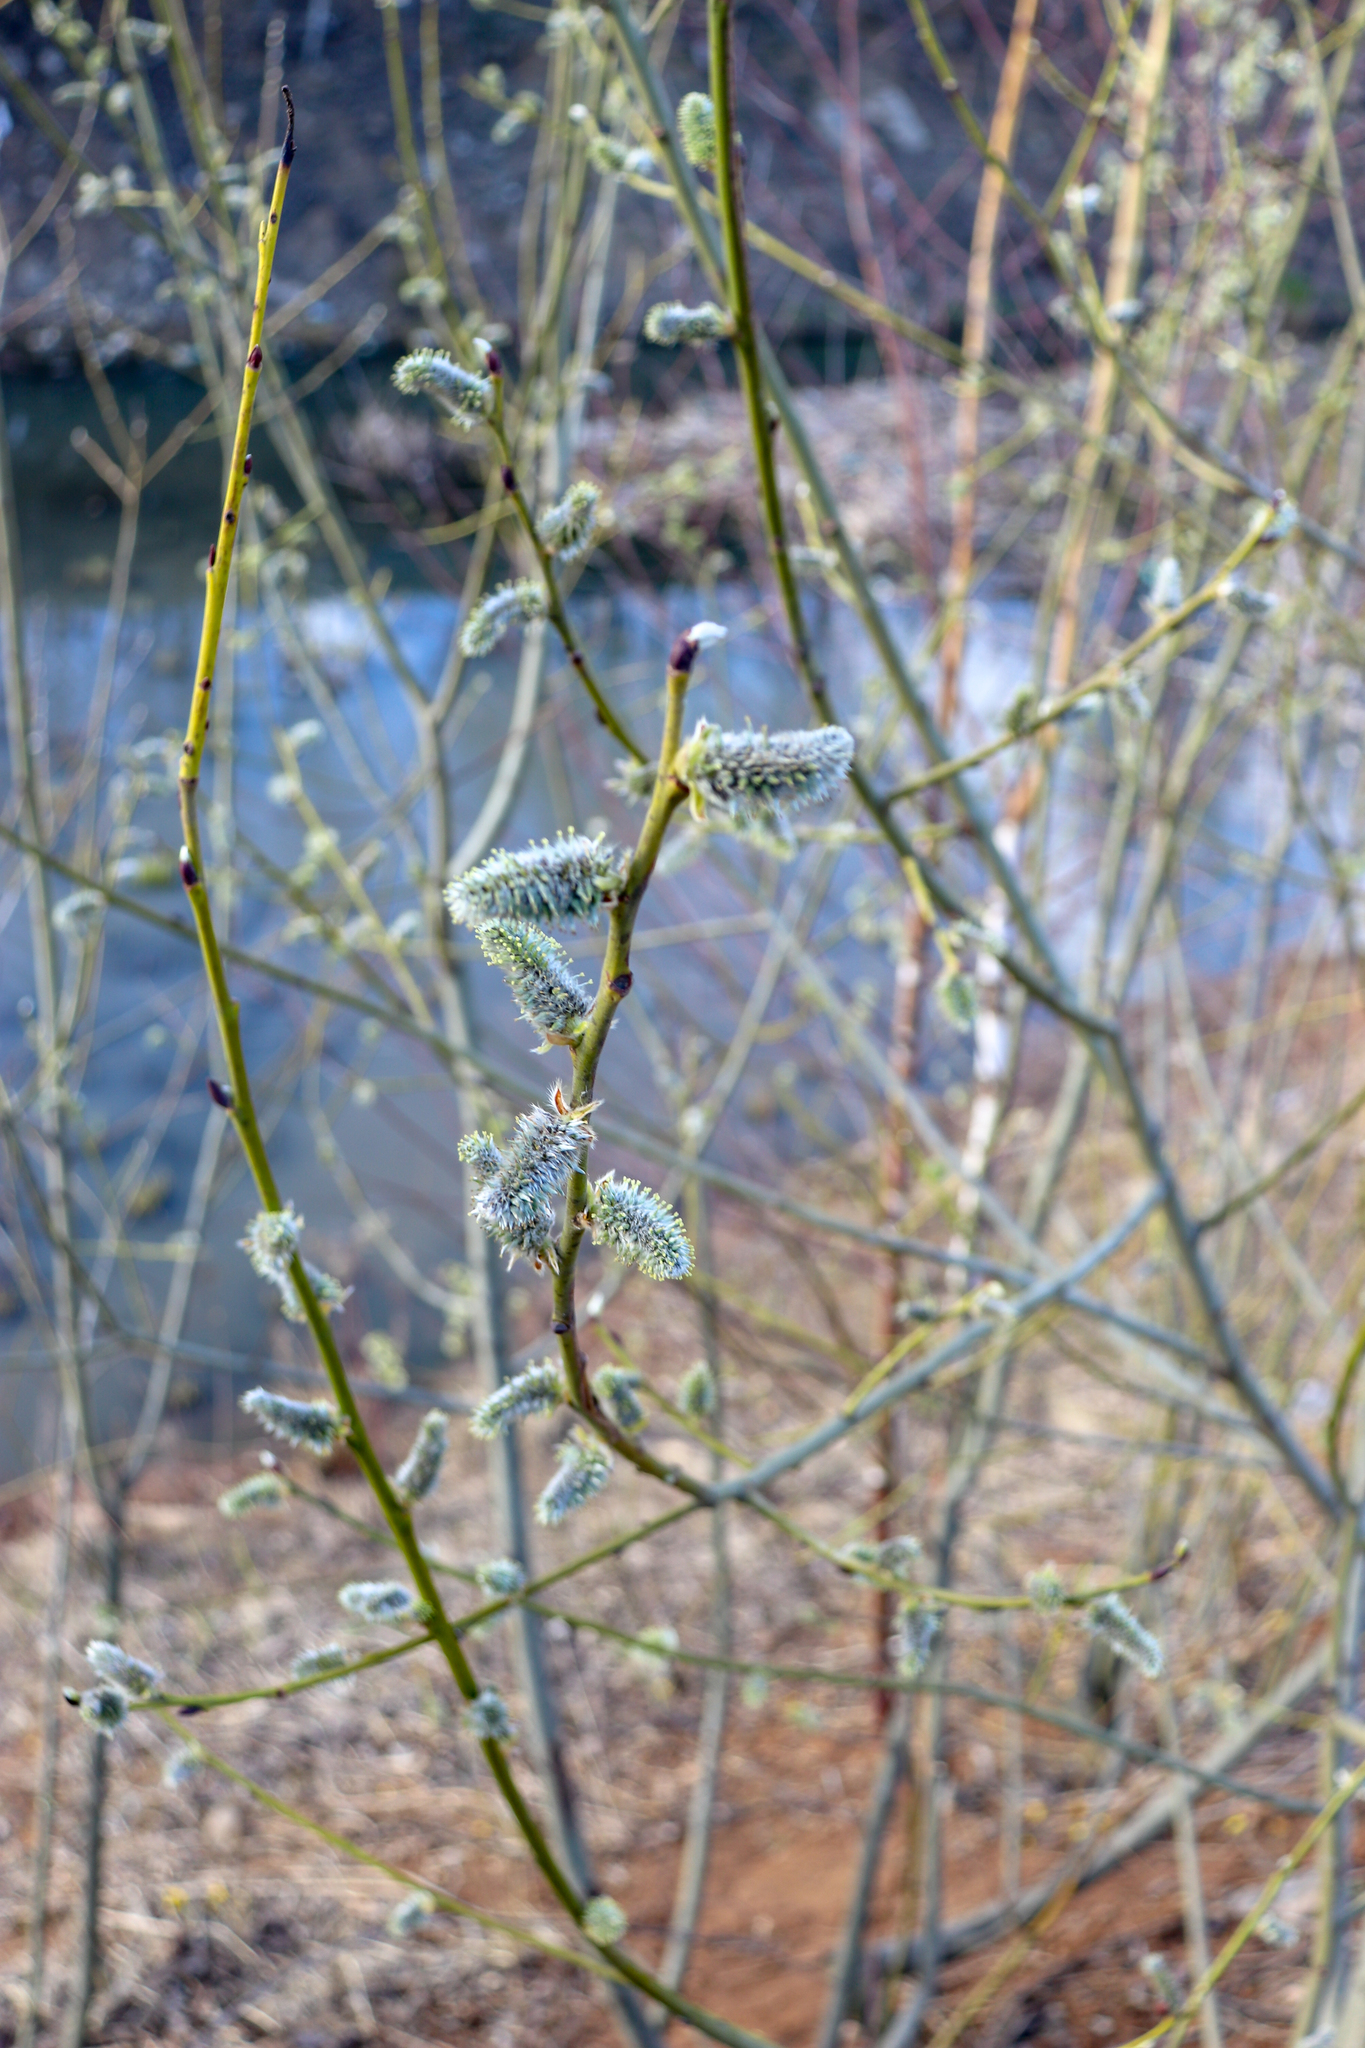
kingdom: Plantae
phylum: Tracheophyta
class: Magnoliopsida
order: Malpighiales
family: Salicaceae
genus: Salix
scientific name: Salix caprea
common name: Goat willow
